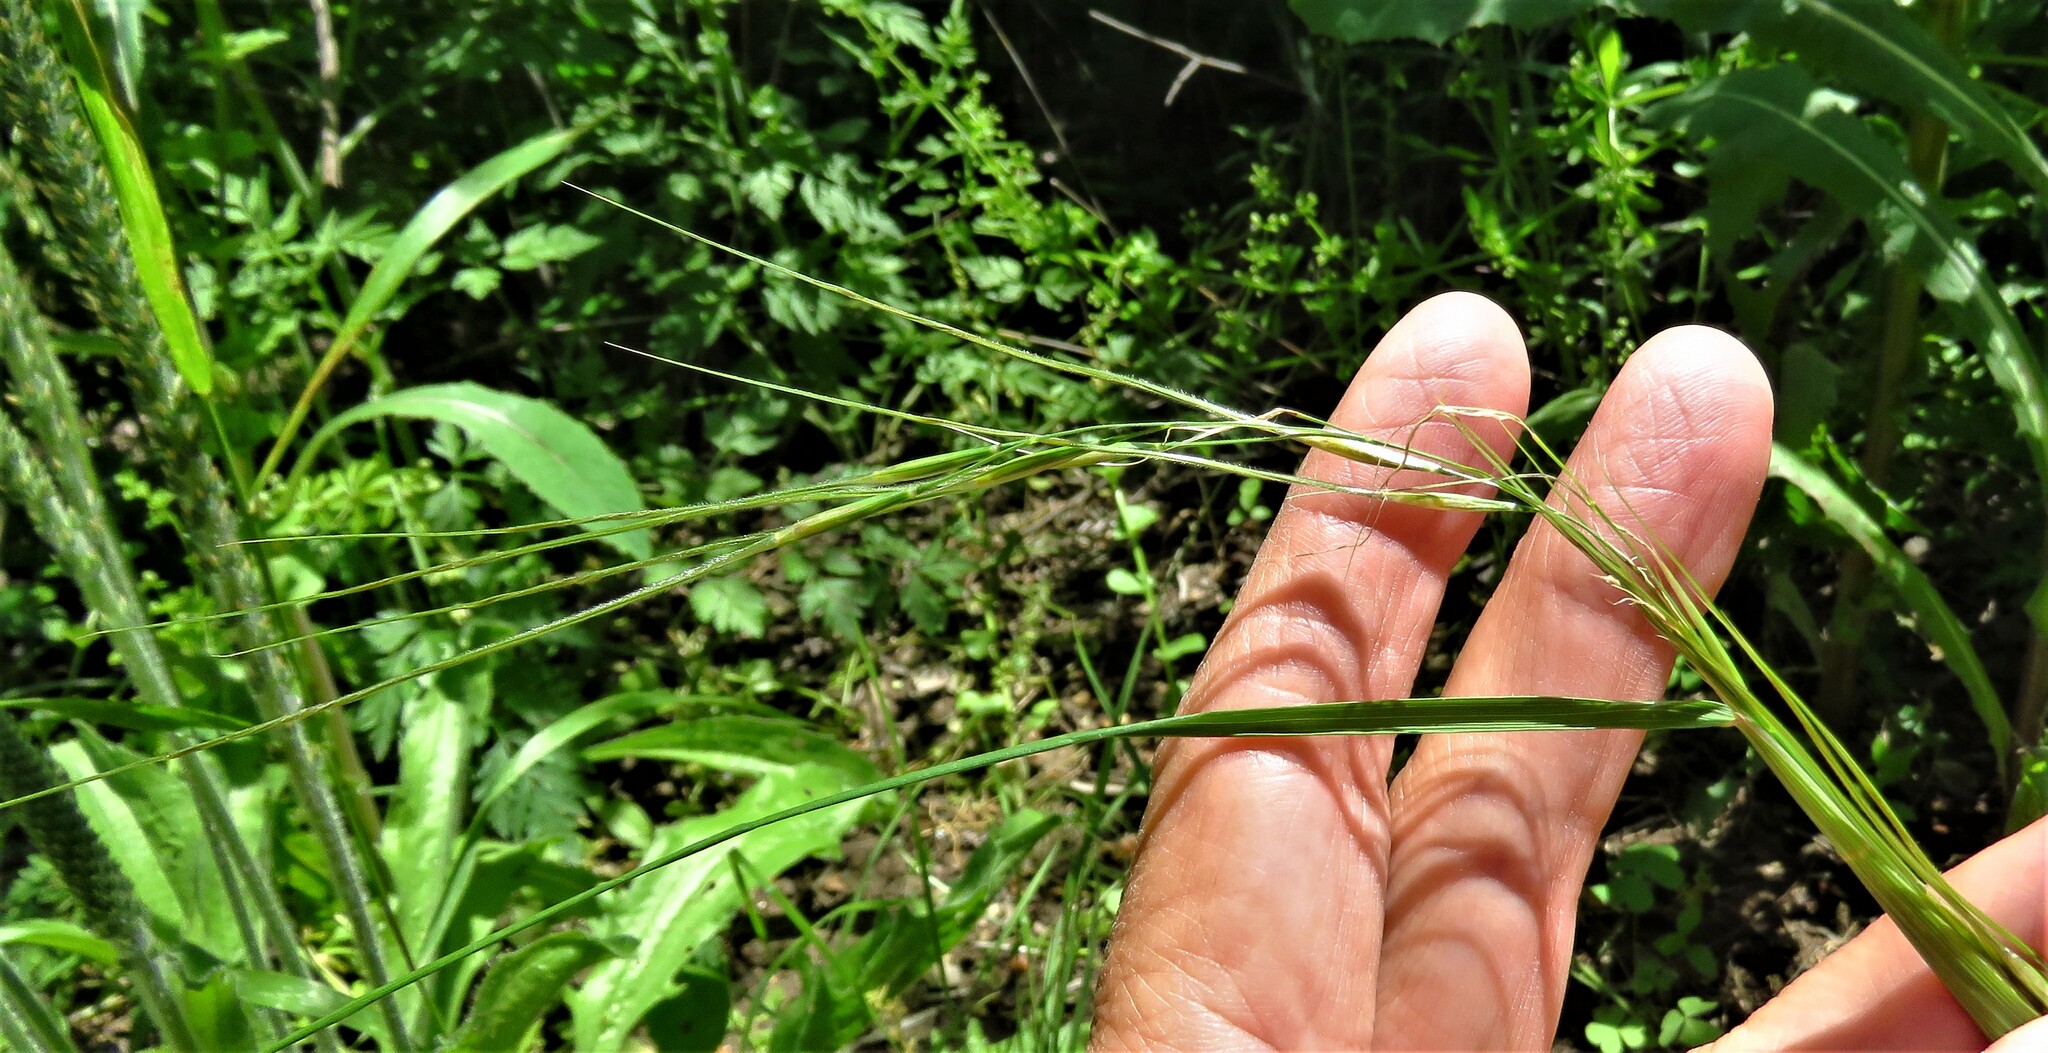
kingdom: Plantae
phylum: Tracheophyta
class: Liliopsida
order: Poales
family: Poaceae
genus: Nassella
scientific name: Nassella leucotricha
